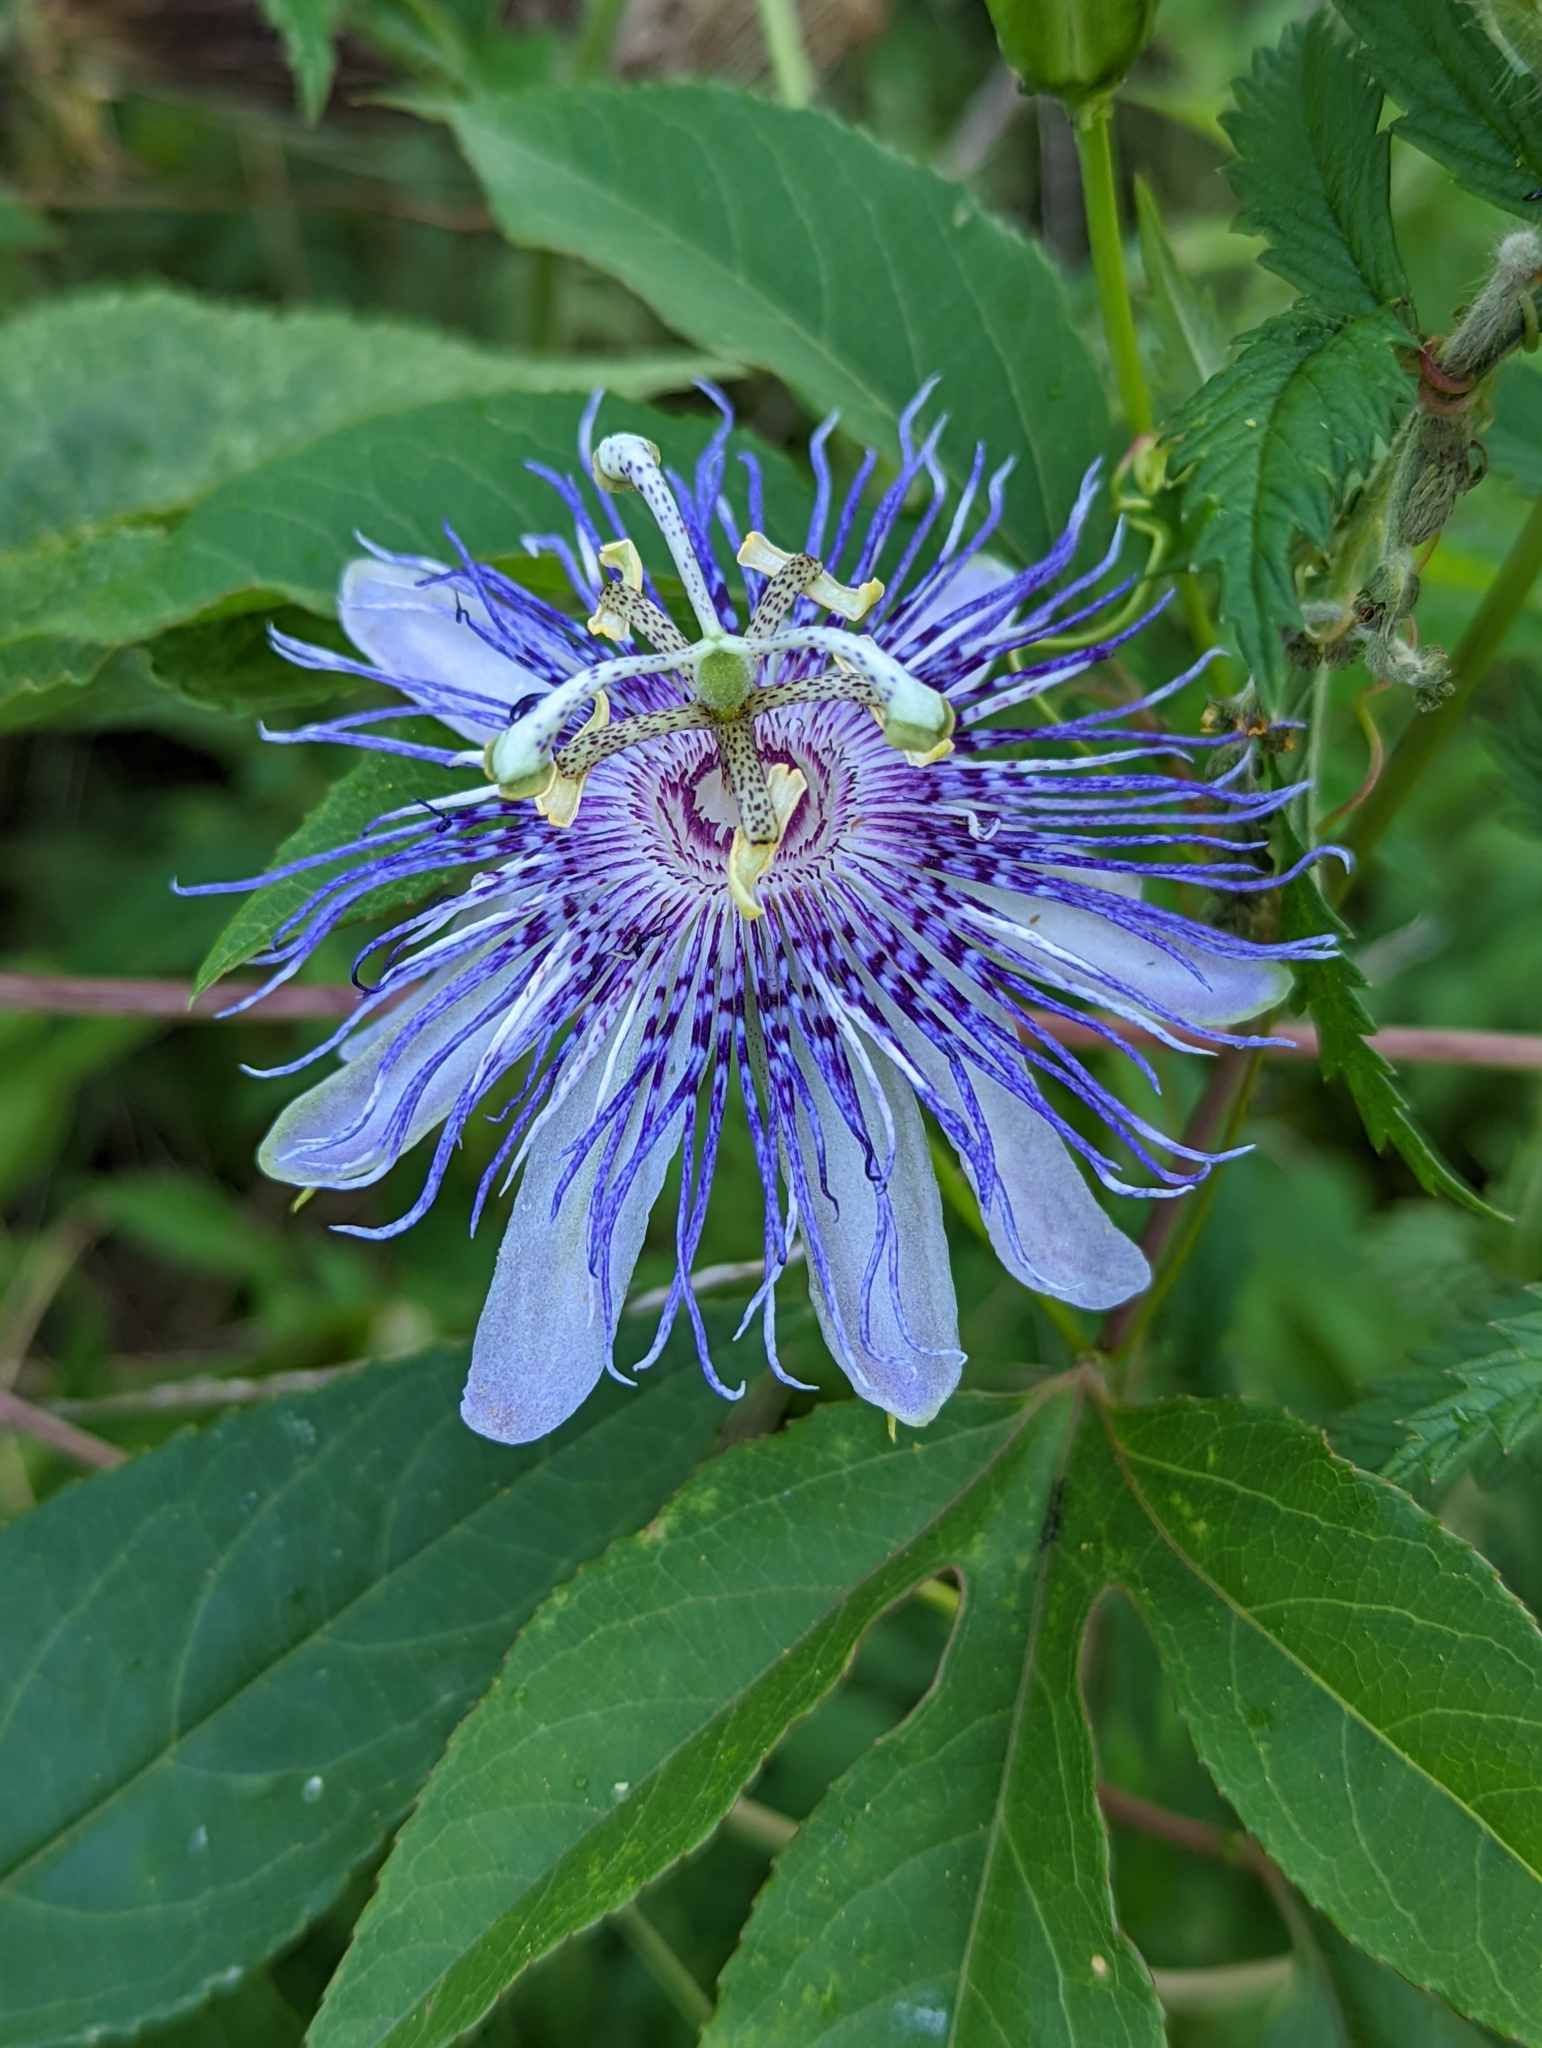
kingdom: Plantae
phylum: Tracheophyta
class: Magnoliopsida
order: Malpighiales
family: Passifloraceae
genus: Passiflora
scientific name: Passiflora incarnata
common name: Apricot-vine
